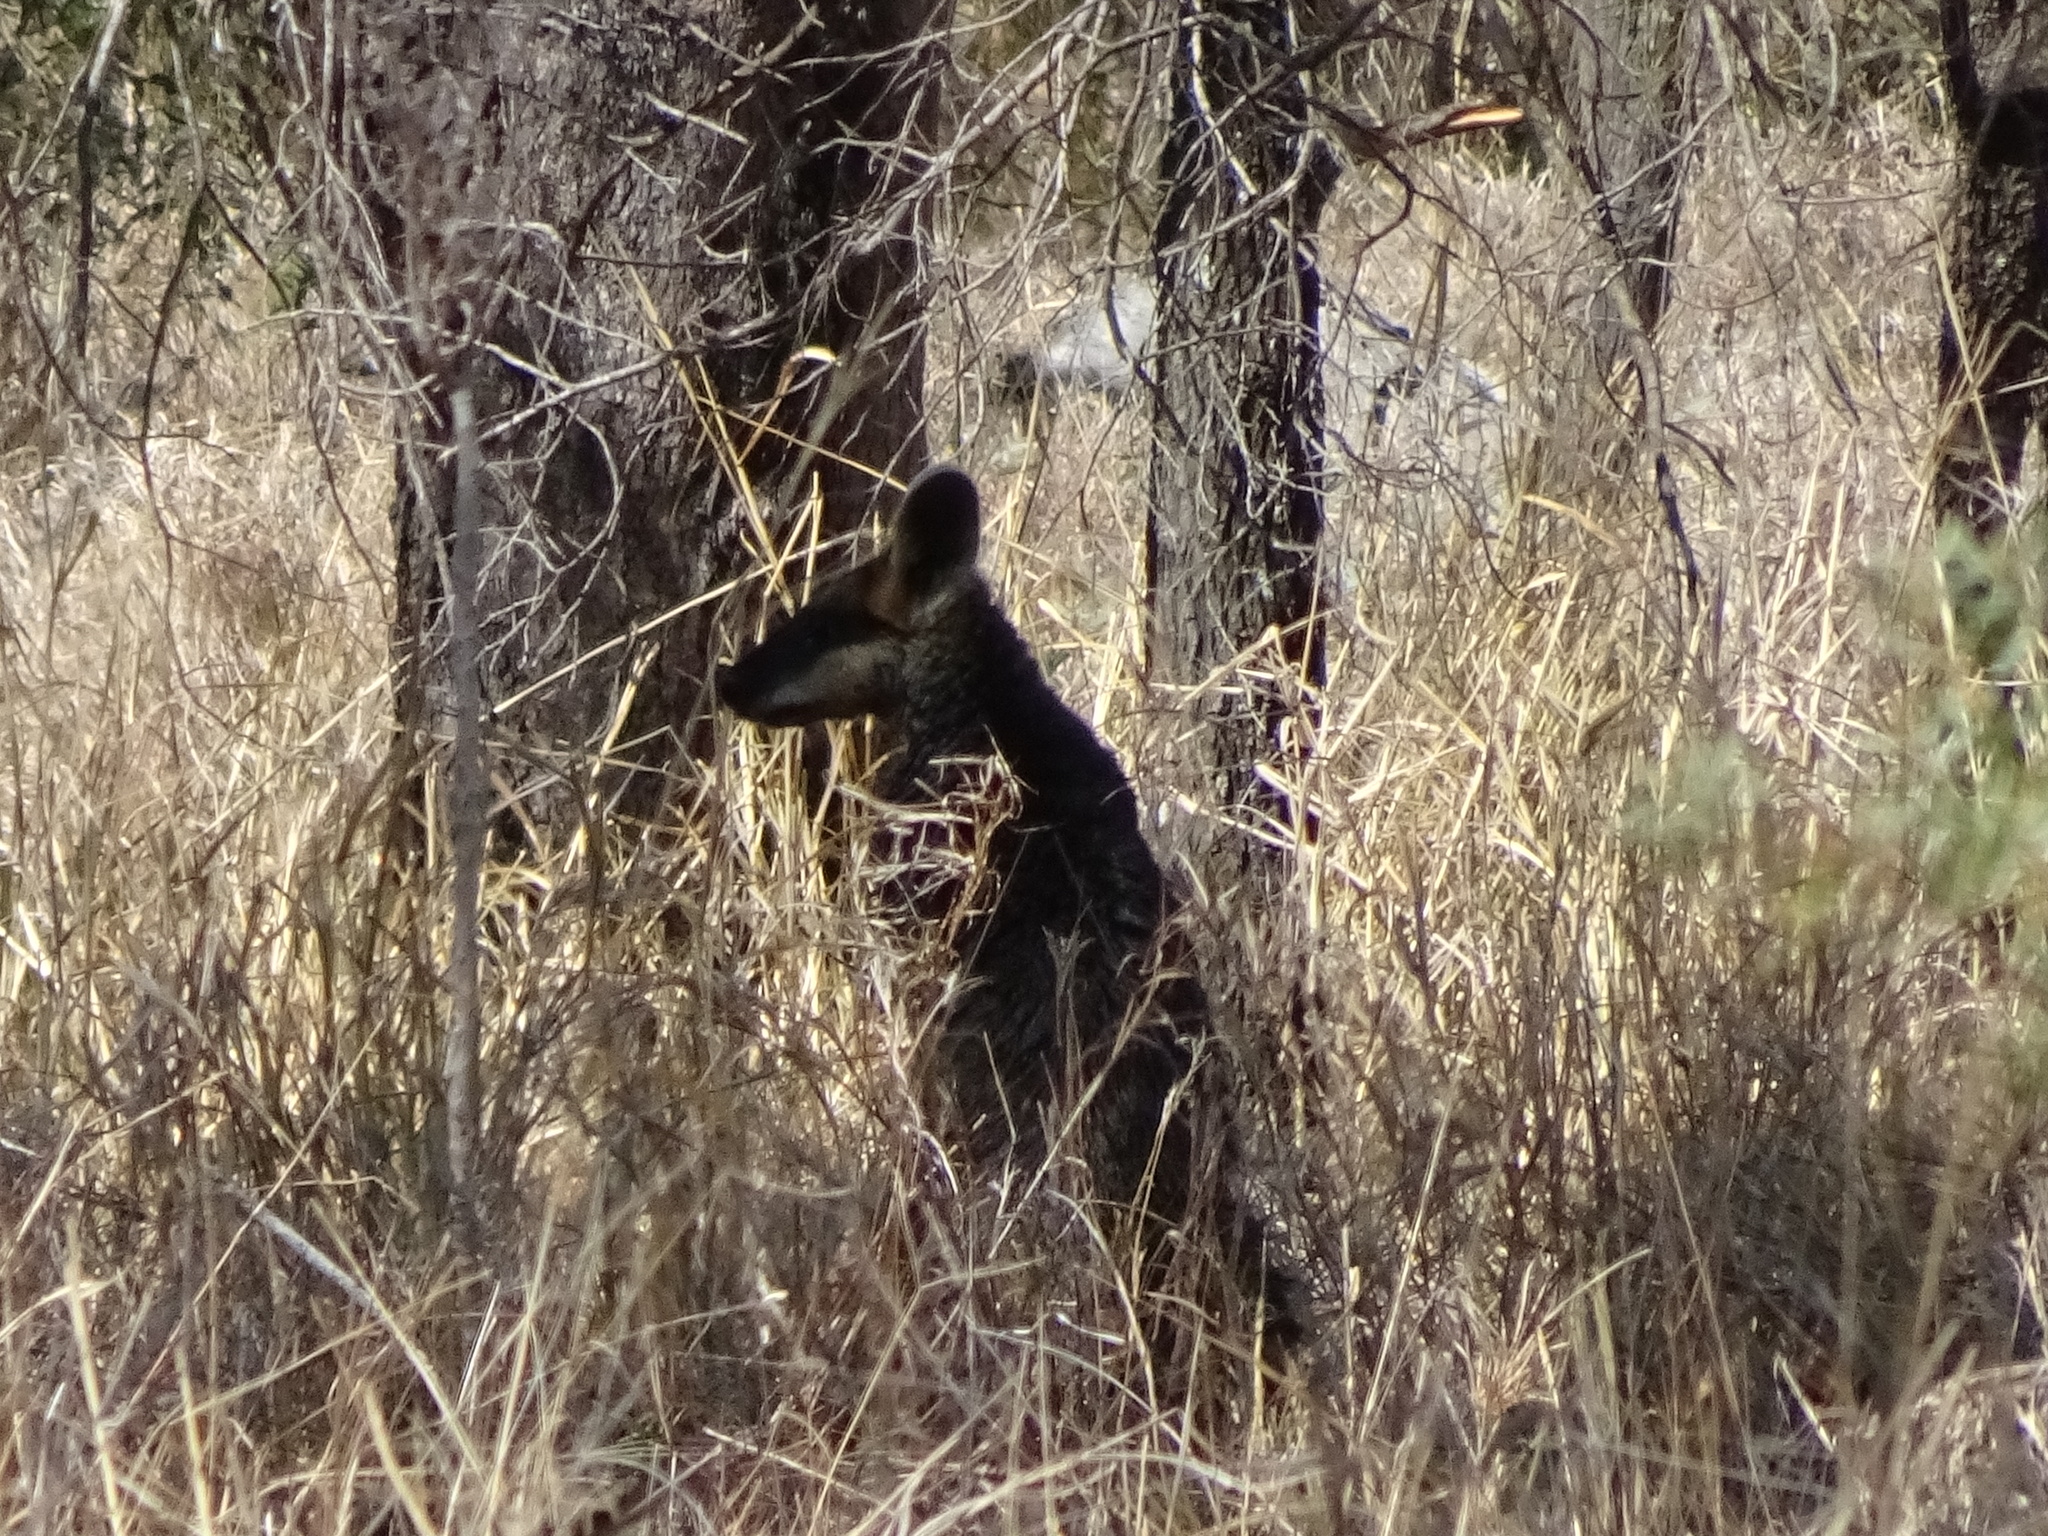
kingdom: Animalia
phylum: Chordata
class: Mammalia
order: Diprotodontia
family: Macropodidae
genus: Wallabia
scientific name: Wallabia bicolor
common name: Swamp wallaby
